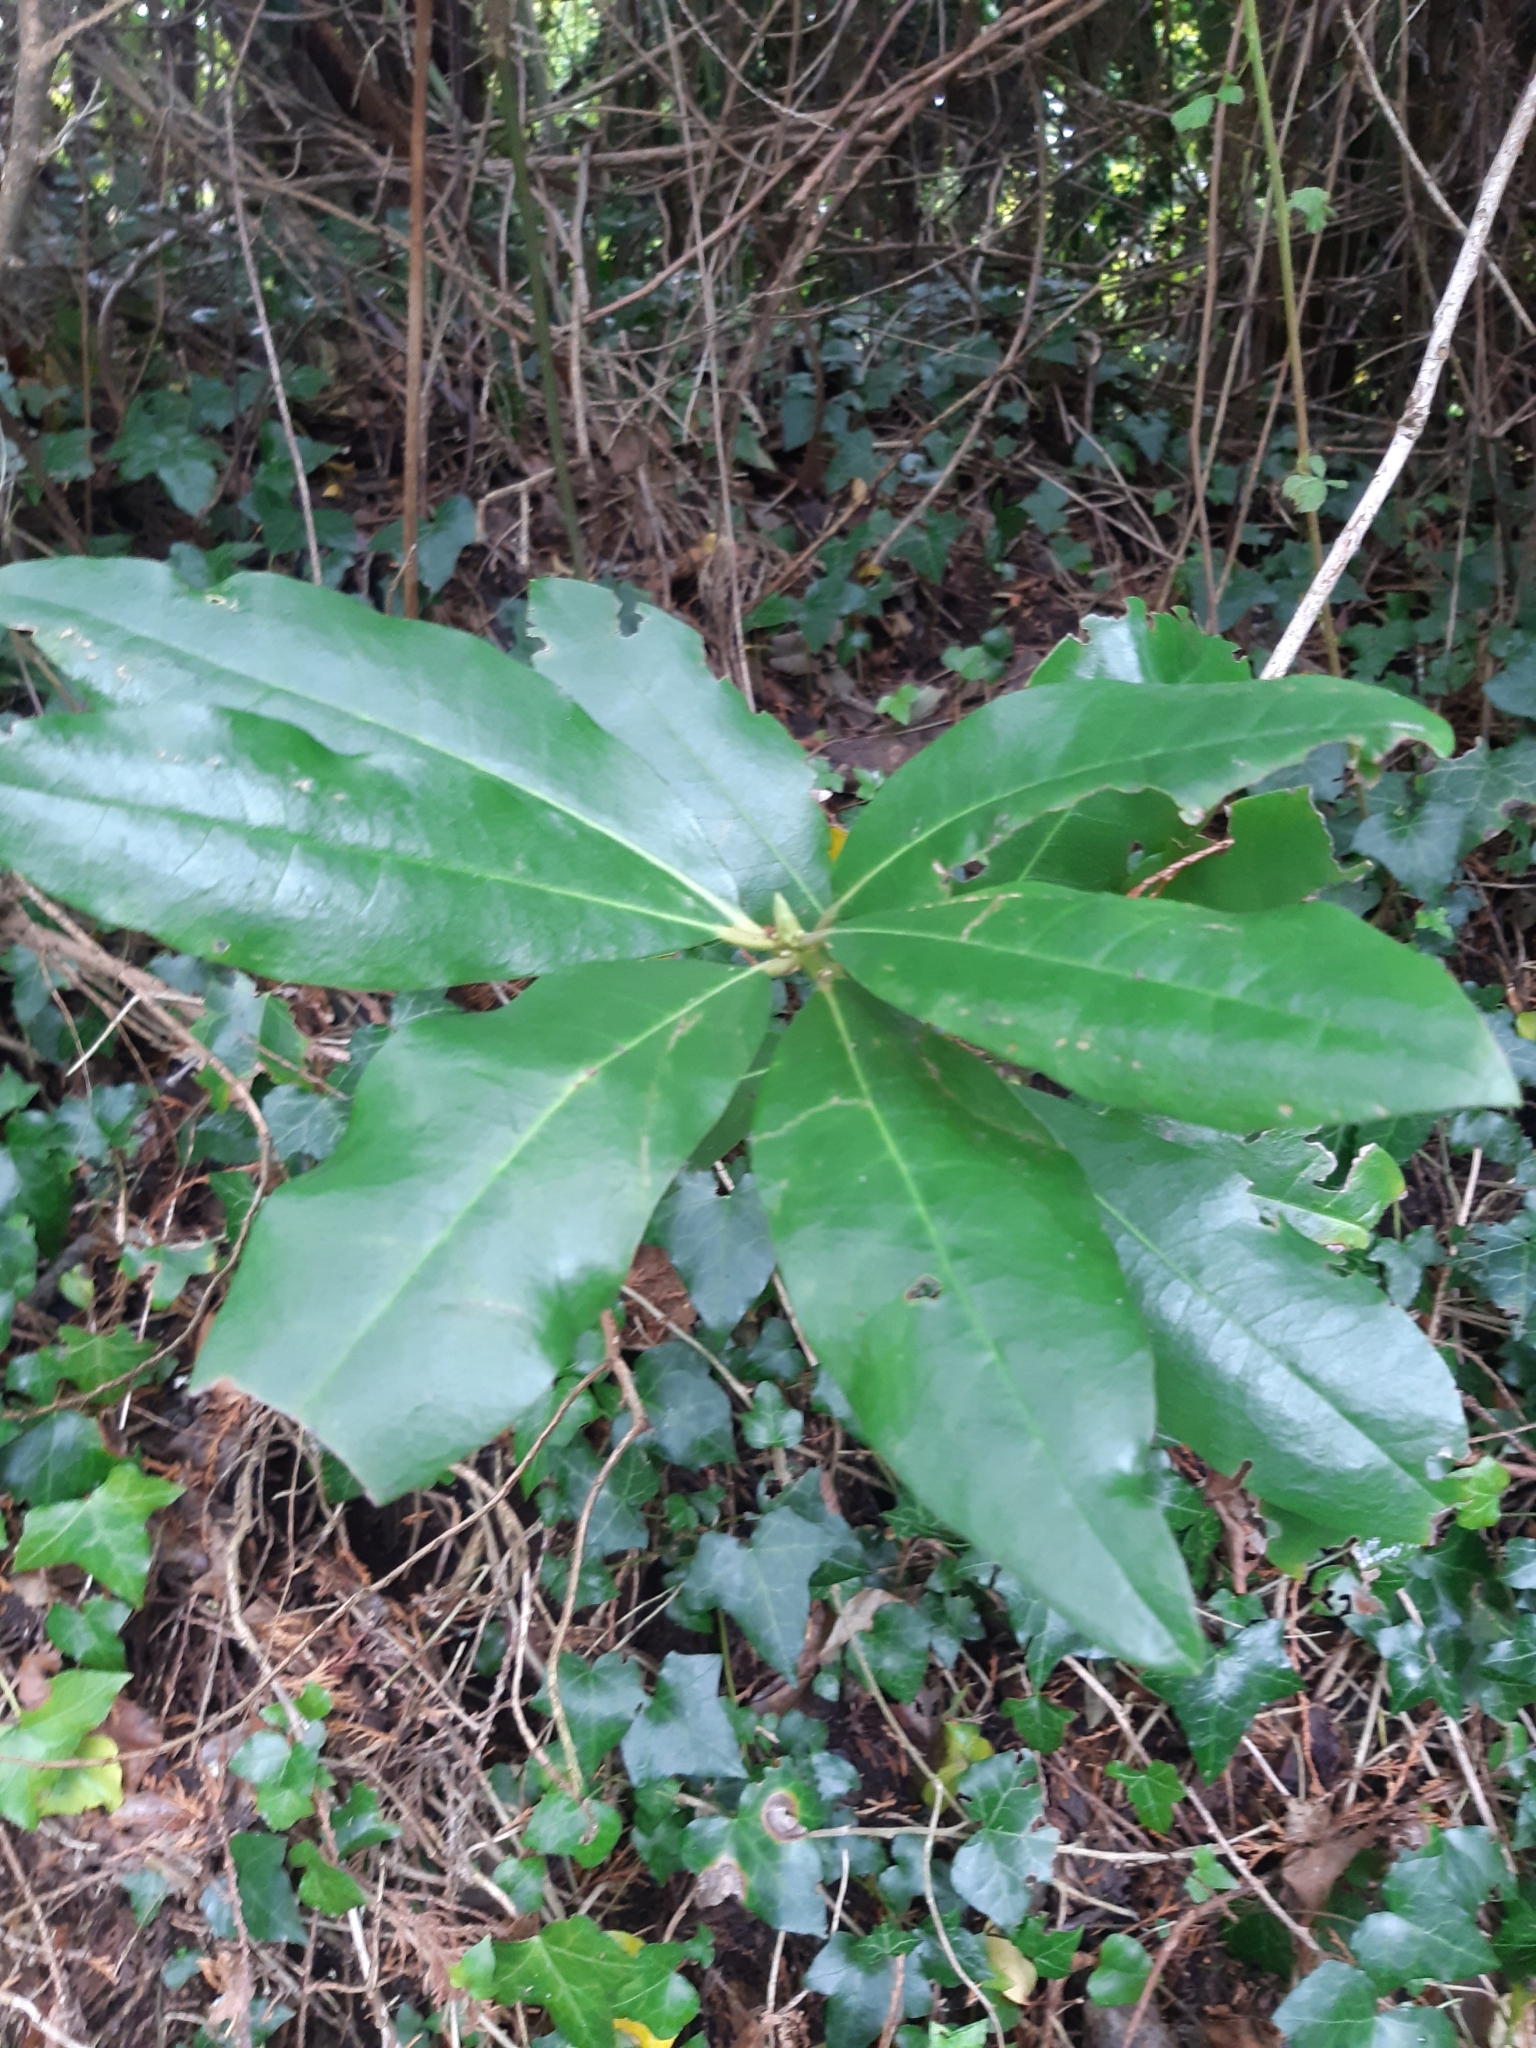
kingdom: Plantae
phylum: Tracheophyta
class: Magnoliopsida
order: Ericales
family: Ericaceae
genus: Rhododendron
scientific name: Rhododendron ponticum
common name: Rhododendron
